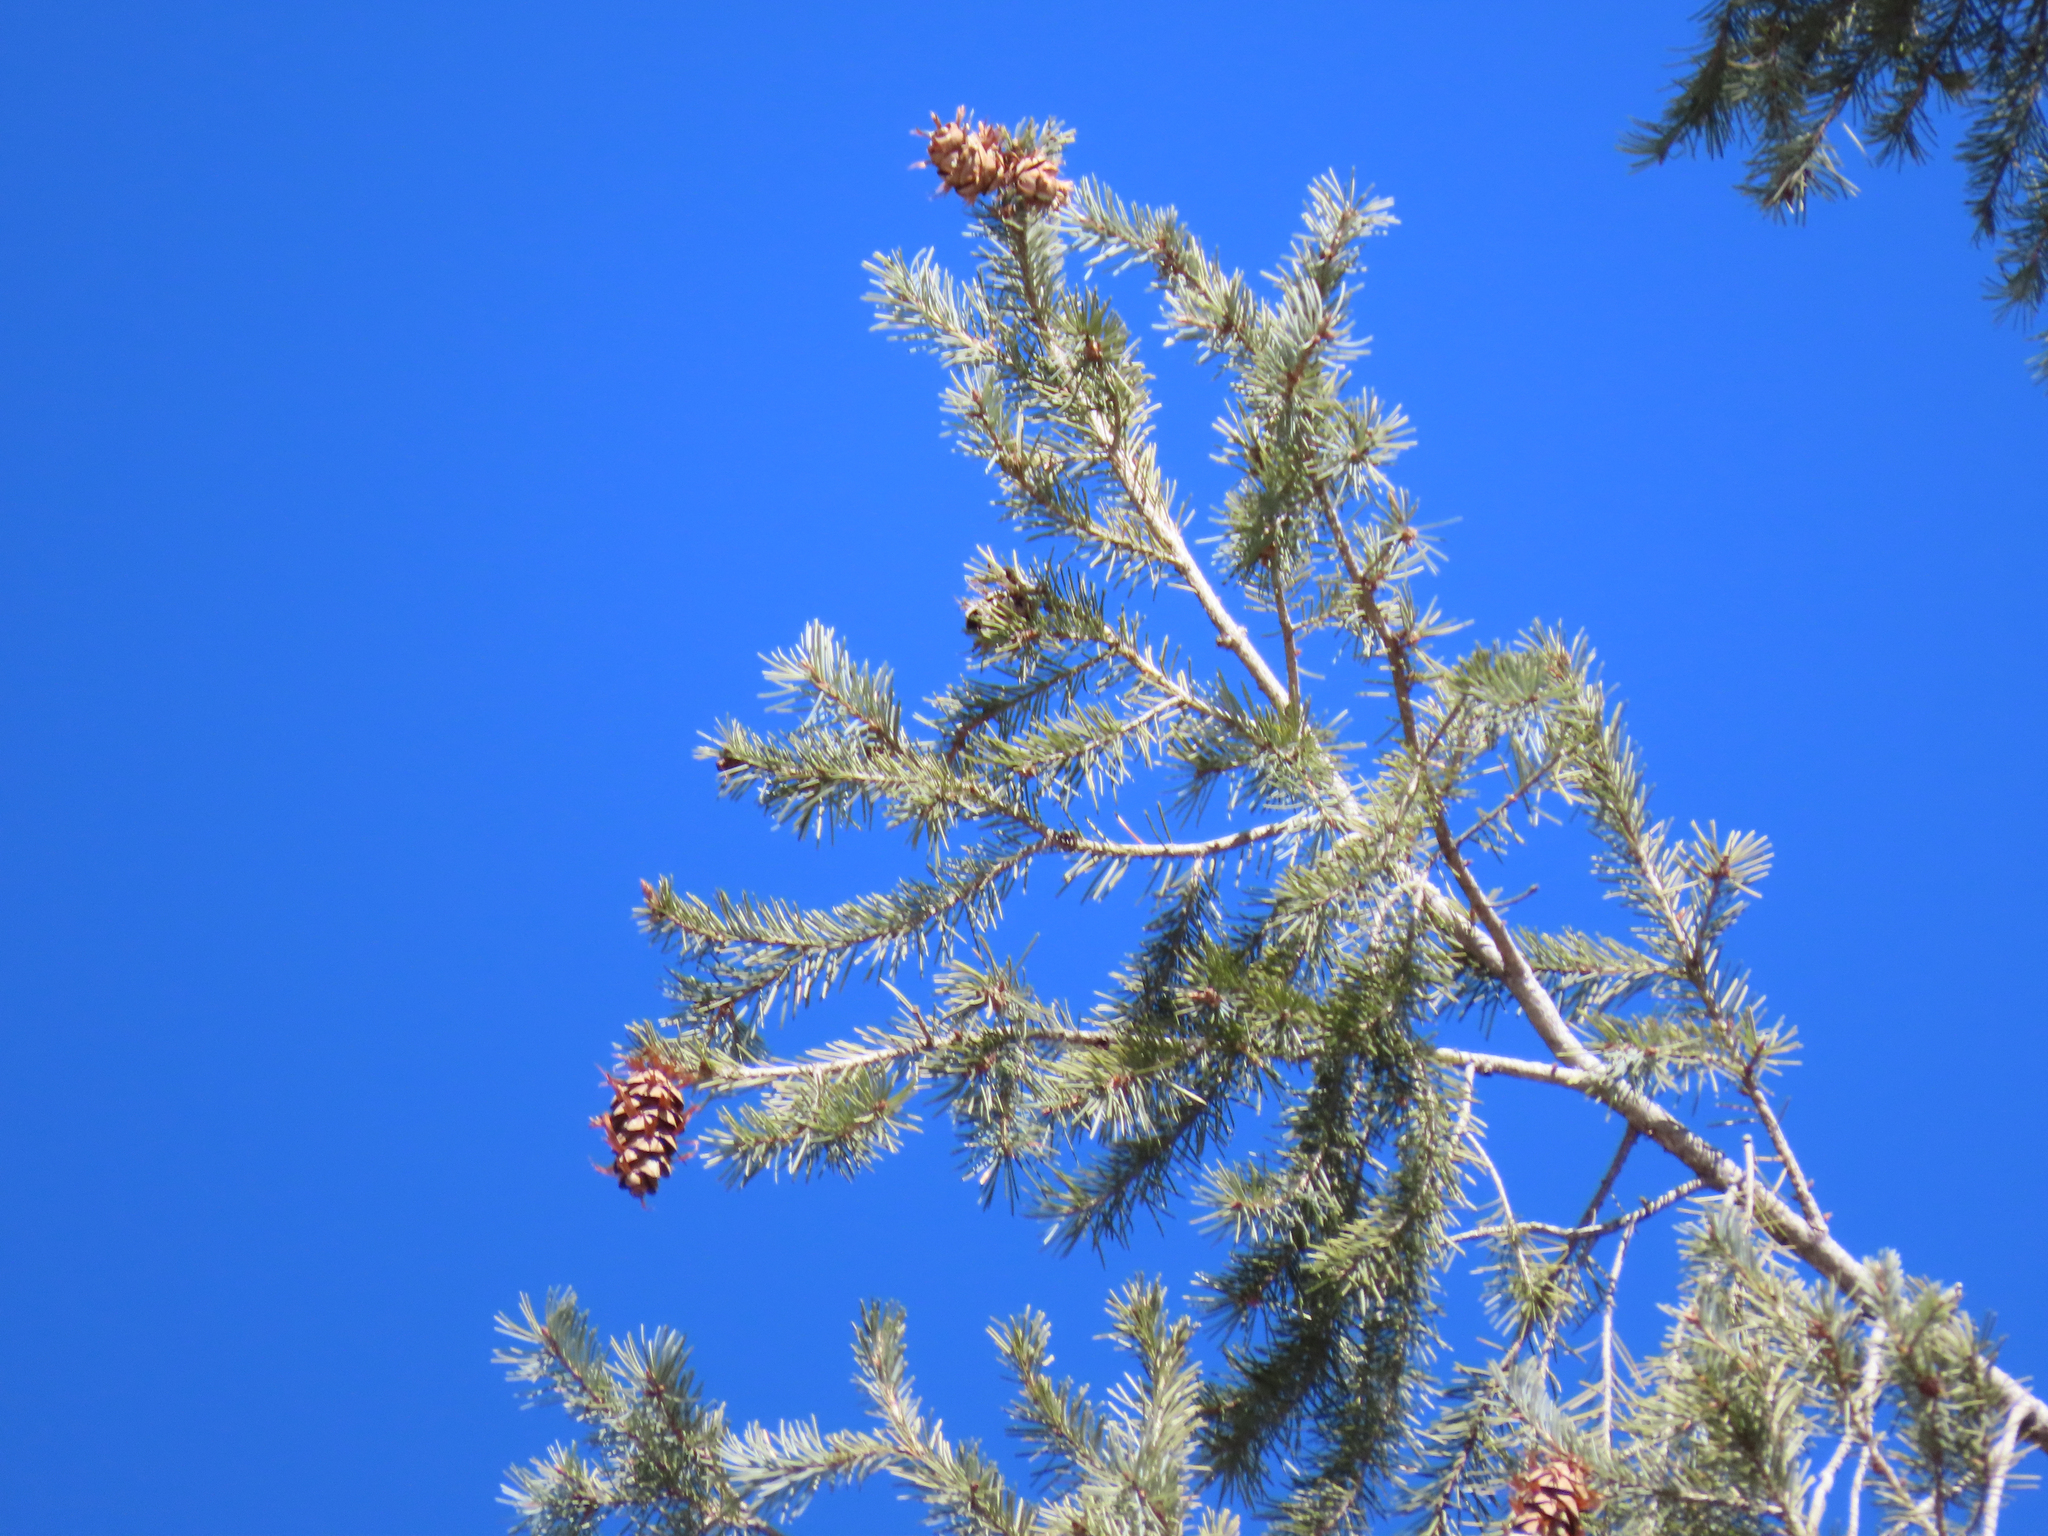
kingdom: Plantae
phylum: Tracheophyta
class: Pinopsida
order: Pinales
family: Pinaceae
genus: Pseudotsuga
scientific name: Pseudotsuga menziesii
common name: Douglas fir
